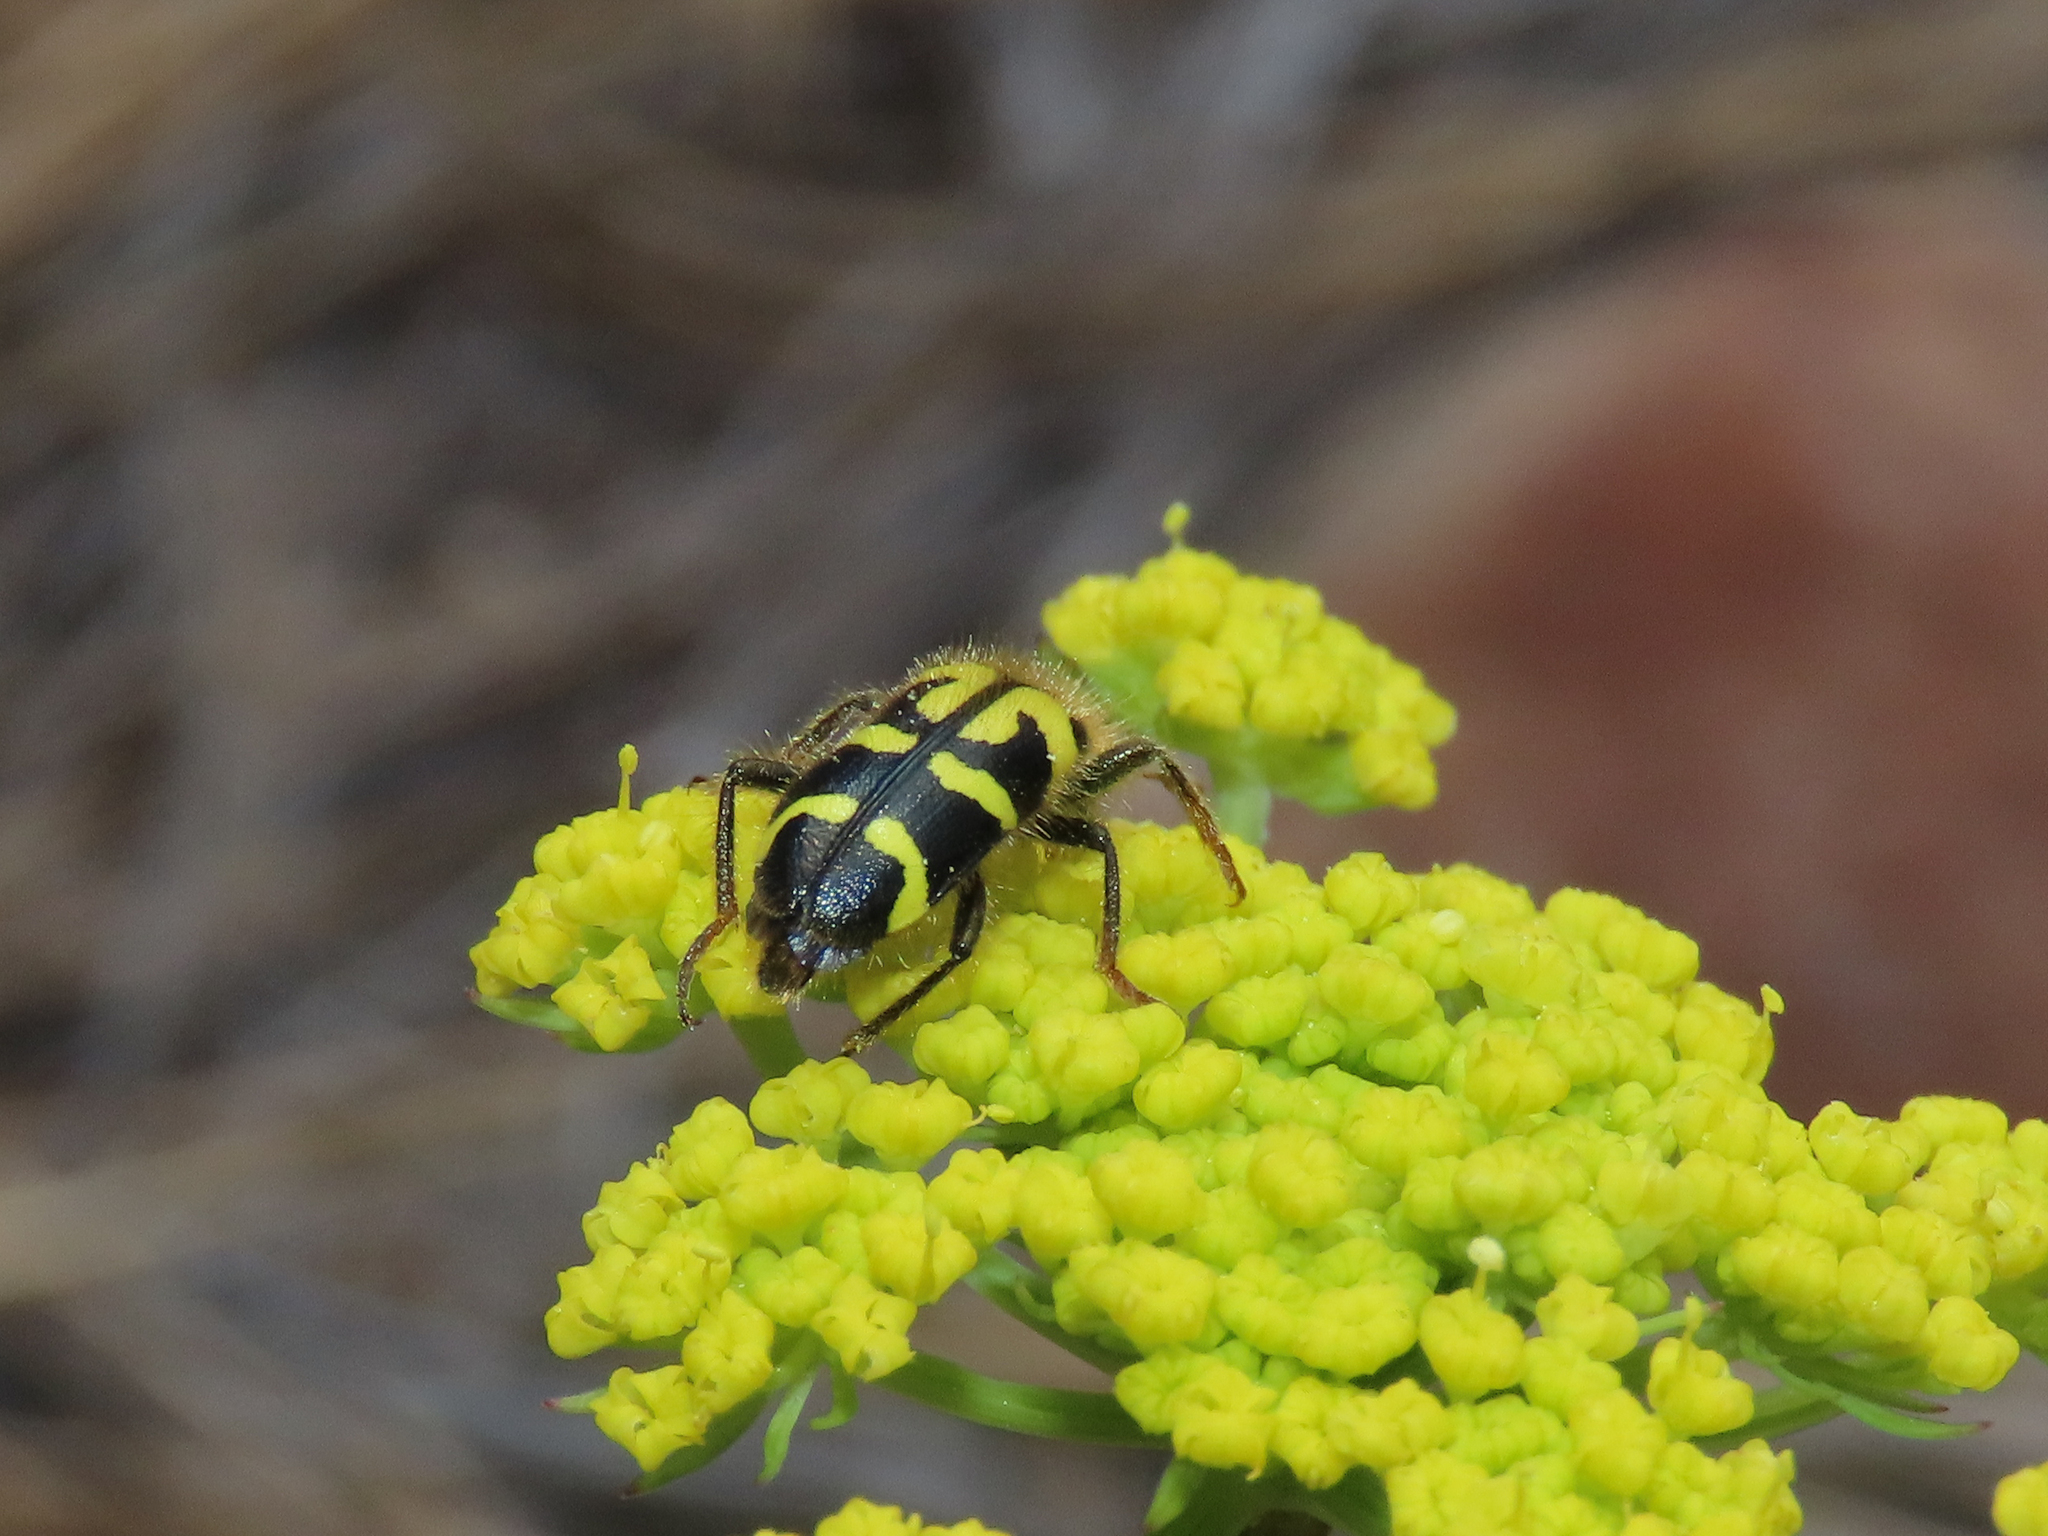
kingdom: Animalia
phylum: Arthropoda
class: Insecta
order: Coleoptera
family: Cleridae
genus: Trichodes
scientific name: Trichodes ornatus
